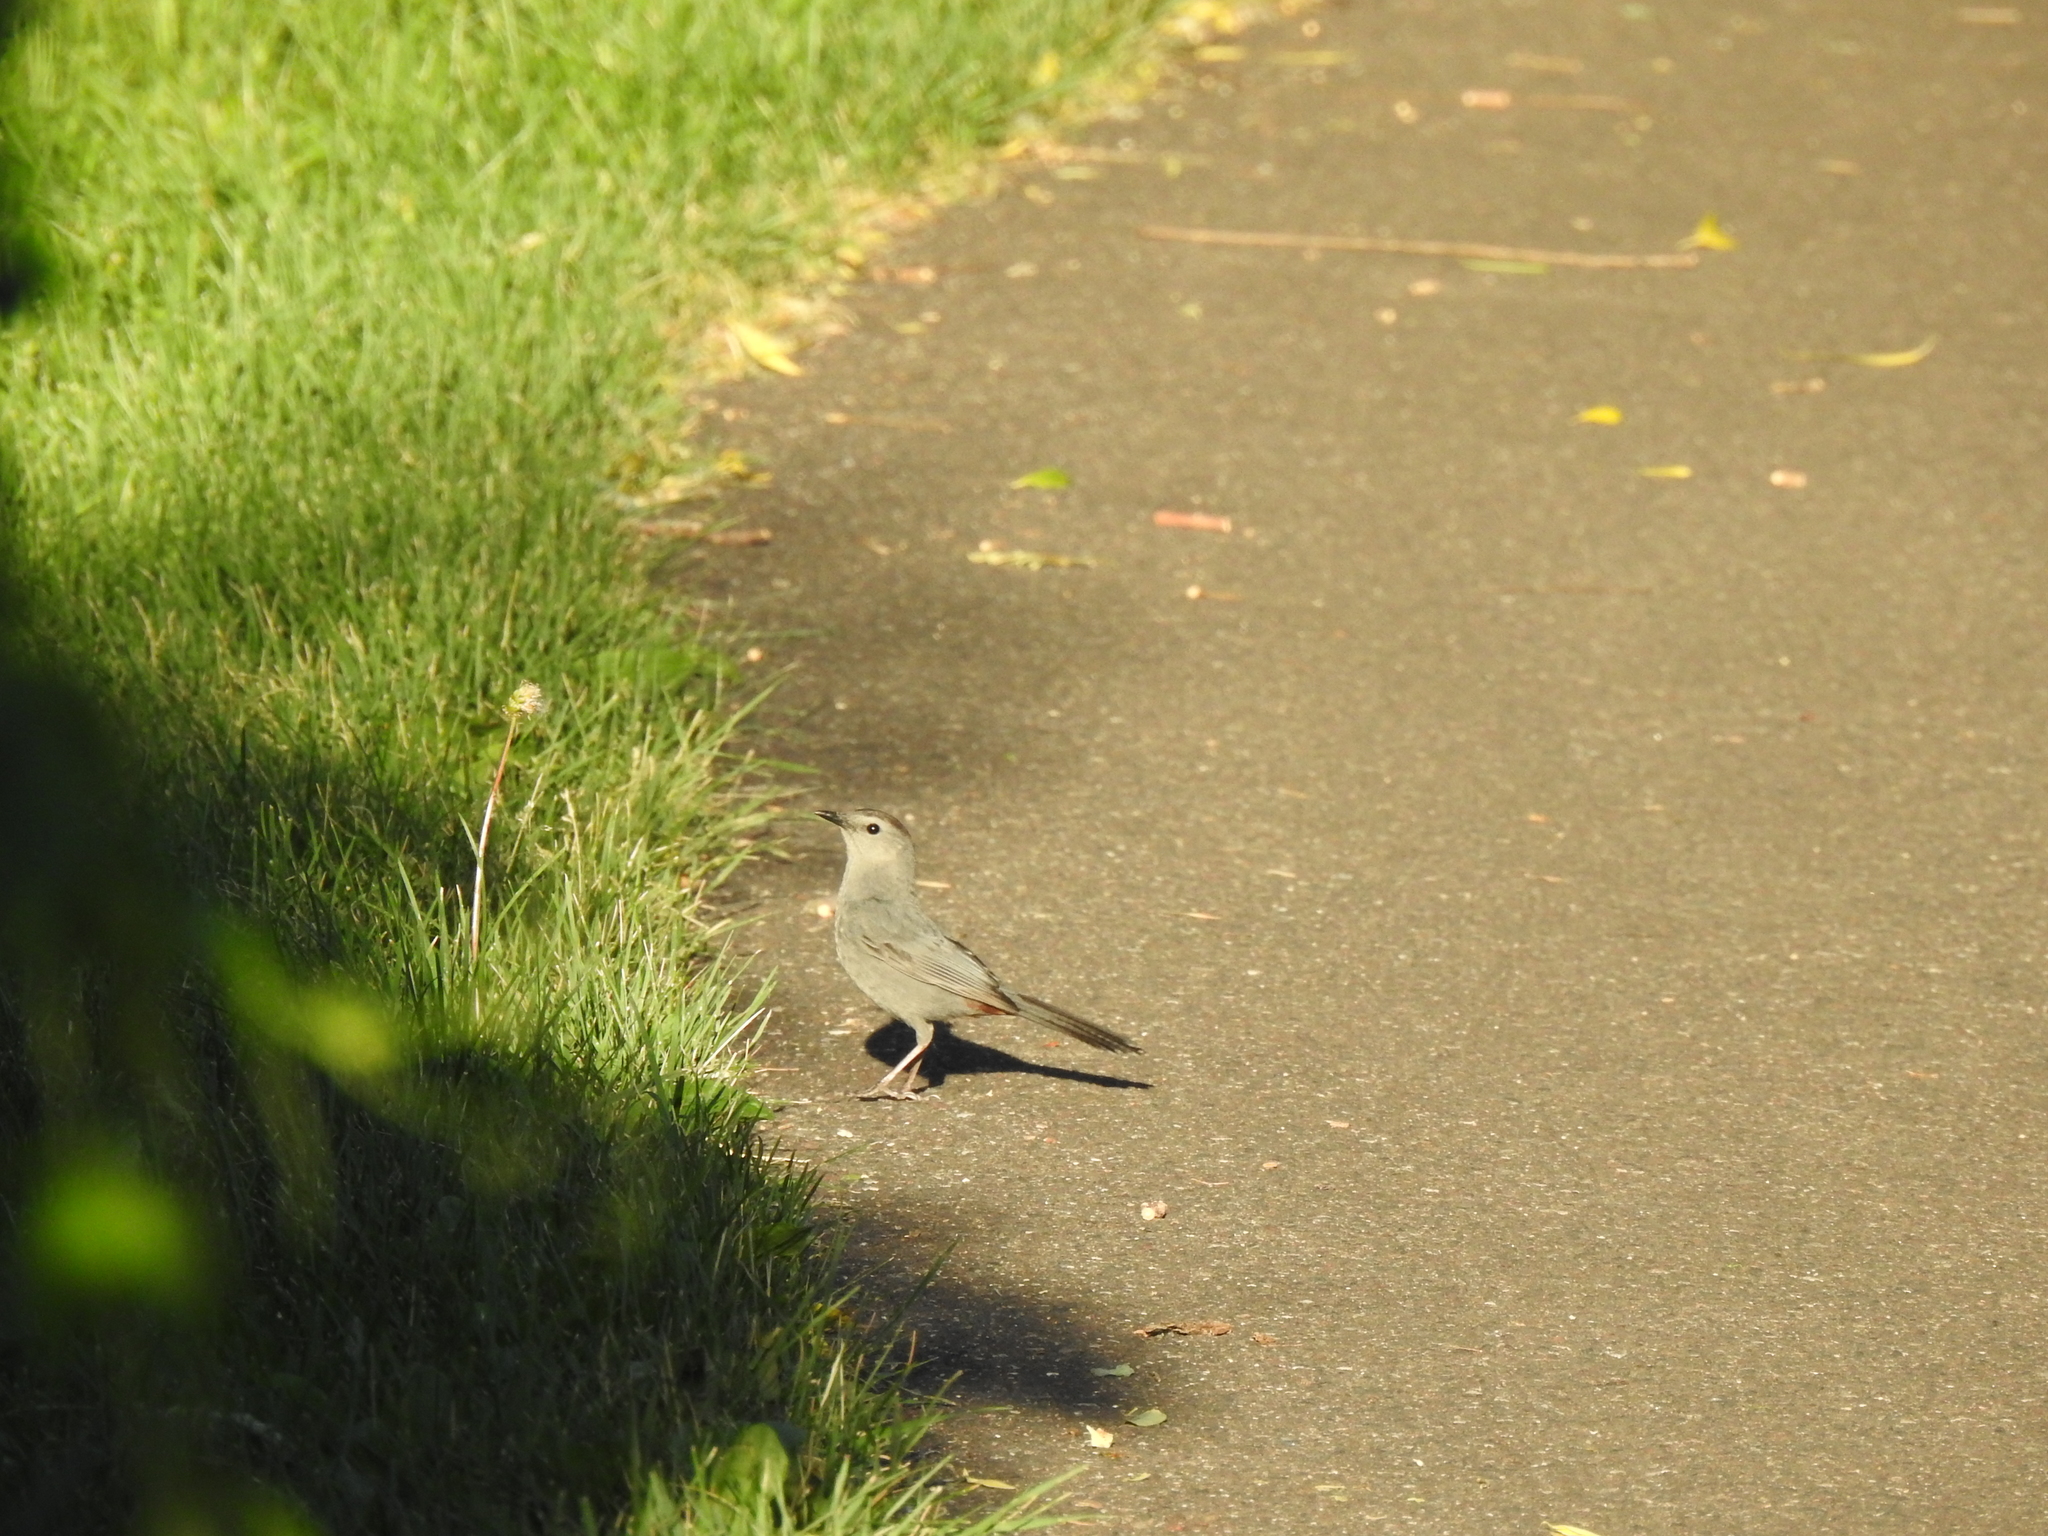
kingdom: Animalia
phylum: Chordata
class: Aves
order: Passeriformes
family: Mimidae
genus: Dumetella
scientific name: Dumetella carolinensis
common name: Gray catbird
